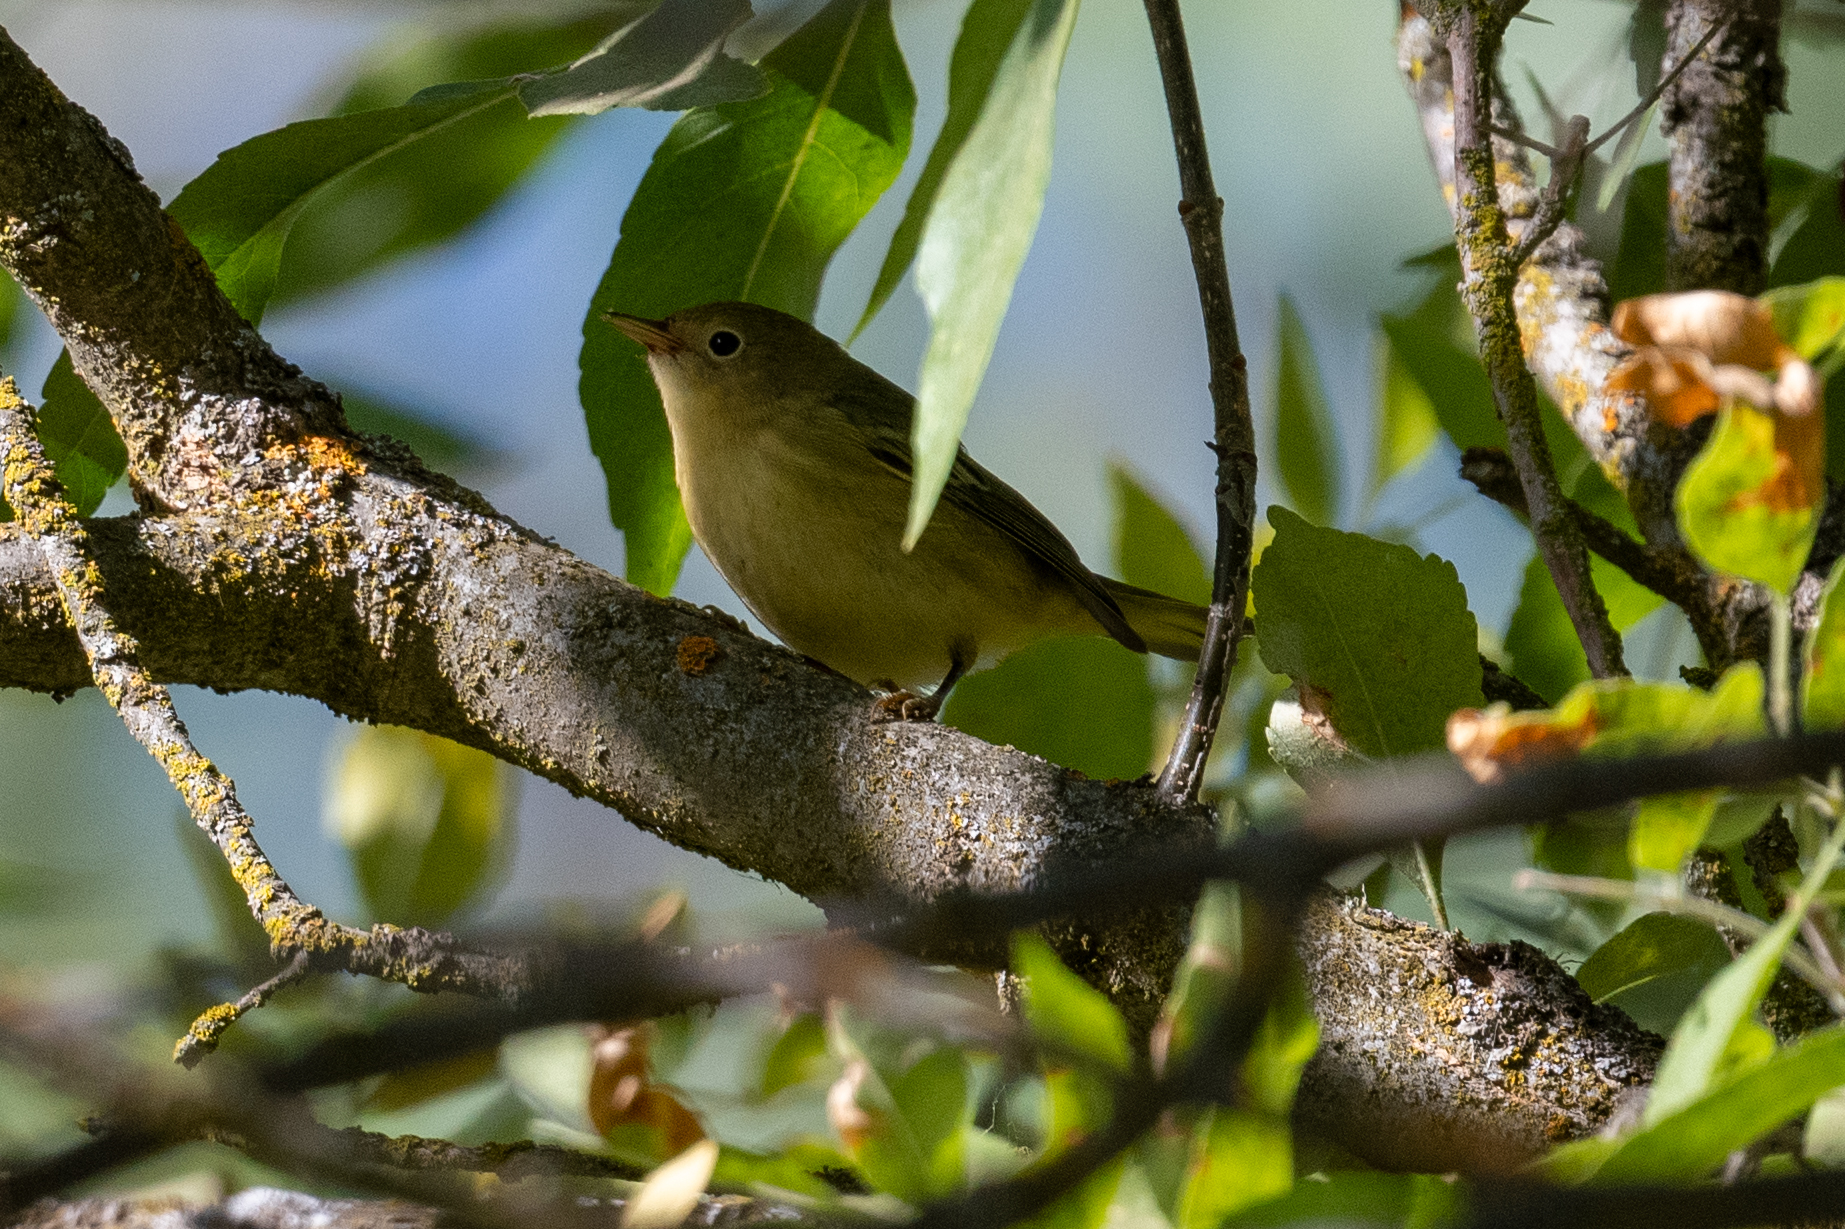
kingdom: Animalia
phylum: Chordata
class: Aves
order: Passeriformes
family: Parulidae
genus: Setophaga
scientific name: Setophaga petechia
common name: Yellow warbler
